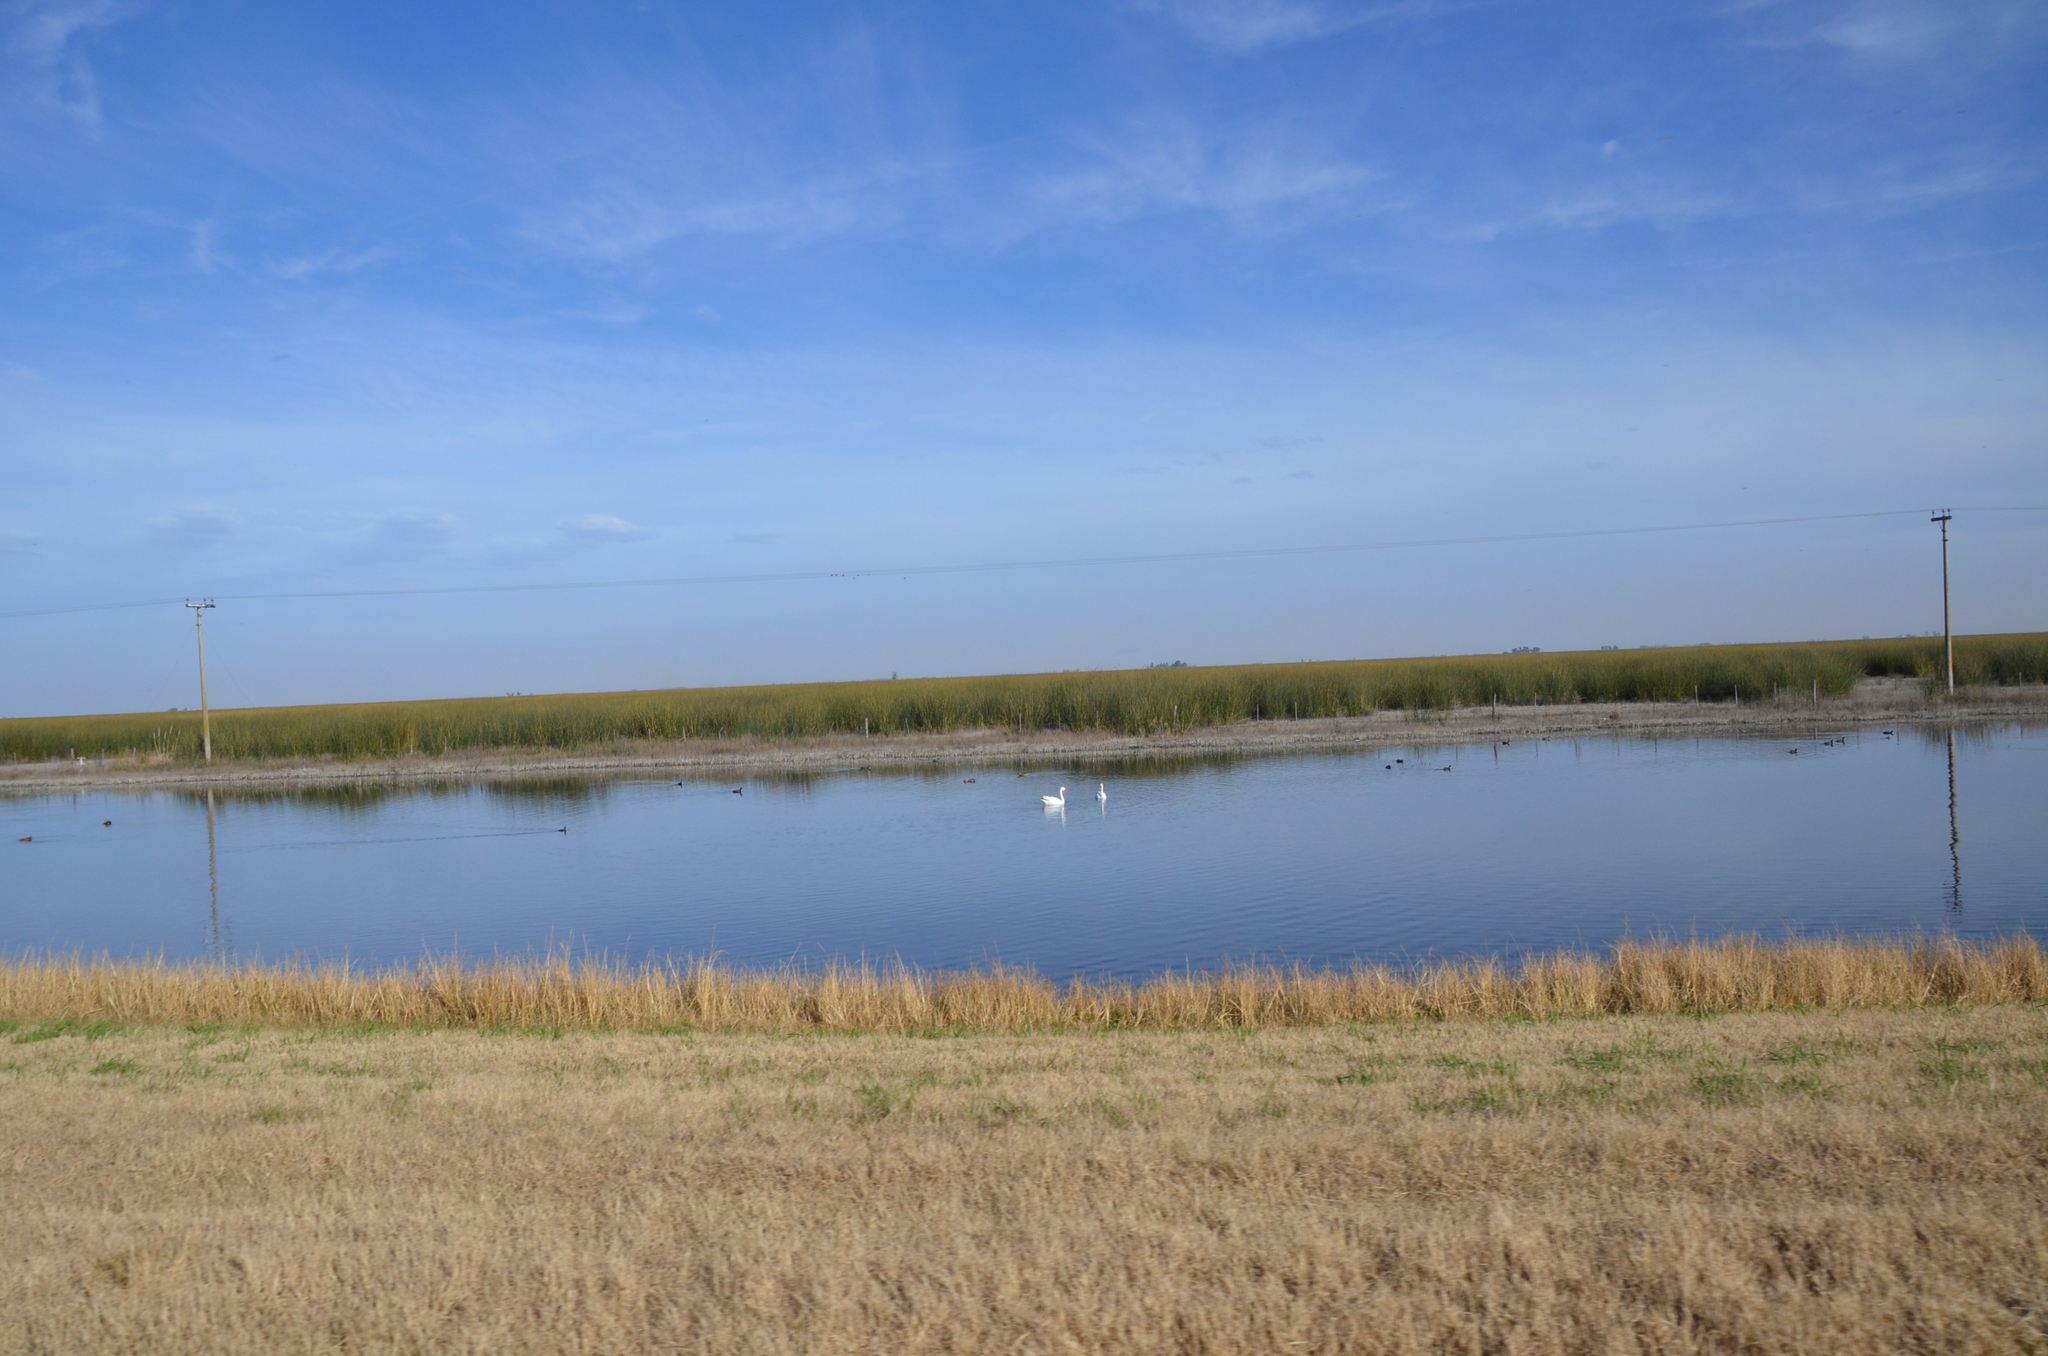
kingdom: Animalia
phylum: Chordata
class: Aves
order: Anseriformes
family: Anatidae
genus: Coscoroba
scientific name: Coscoroba coscoroba
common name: Coscoroba swan
